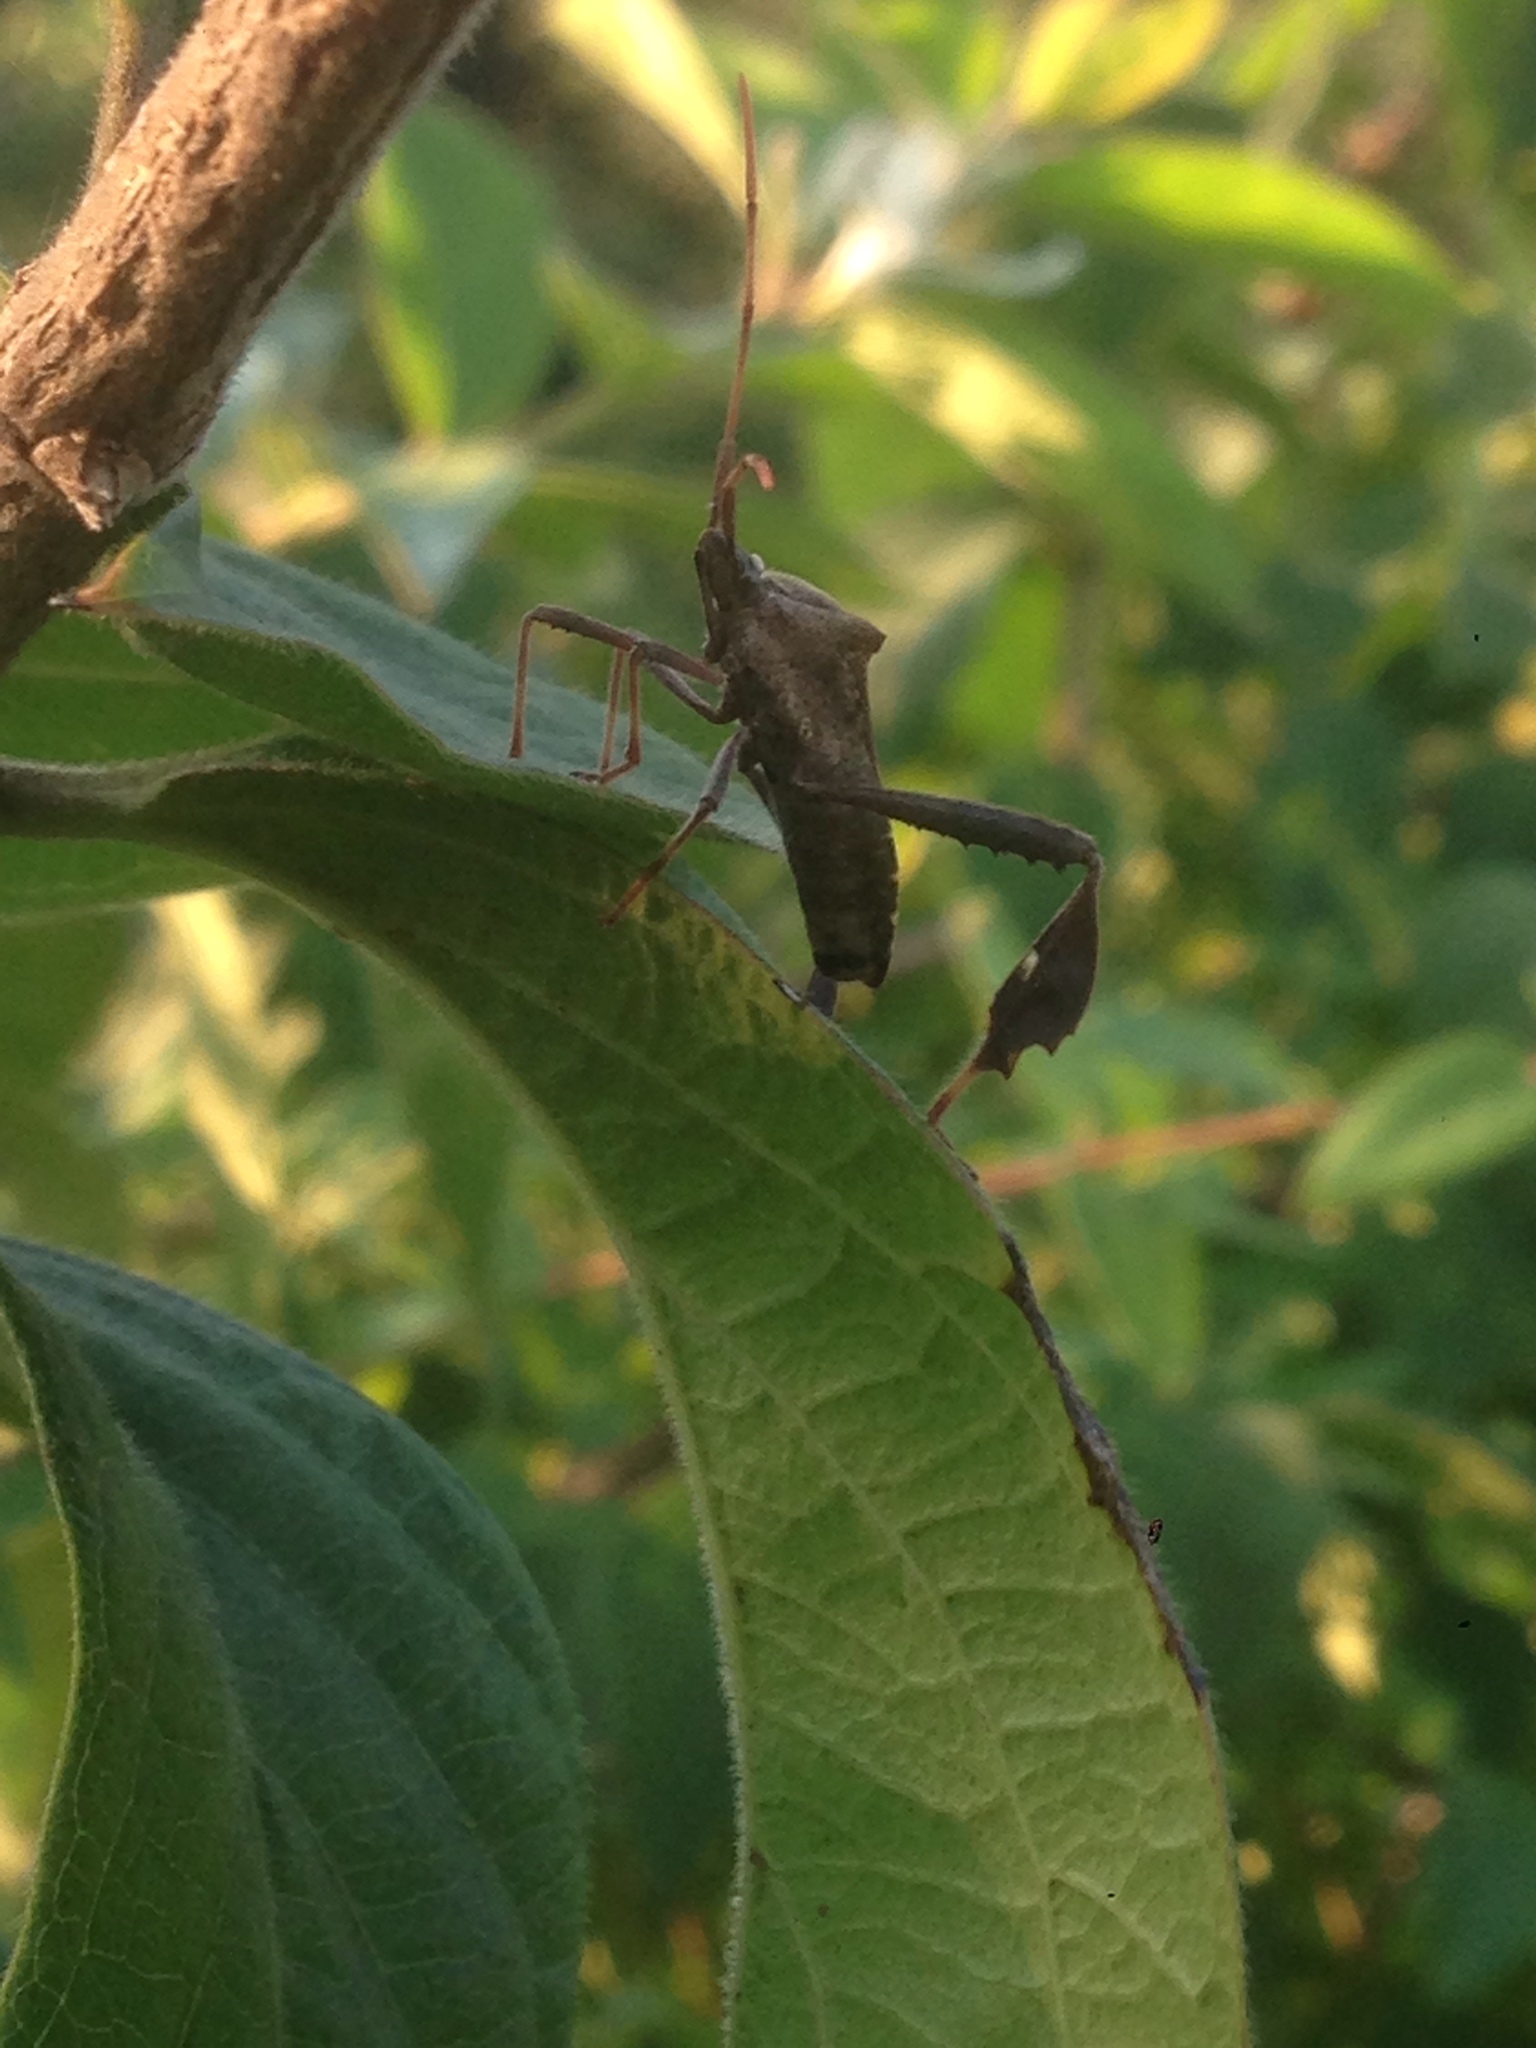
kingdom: Animalia
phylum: Arthropoda
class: Insecta
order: Hemiptera
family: Coreidae
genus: Leptoglossus
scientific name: Leptoglossus phyllopus
